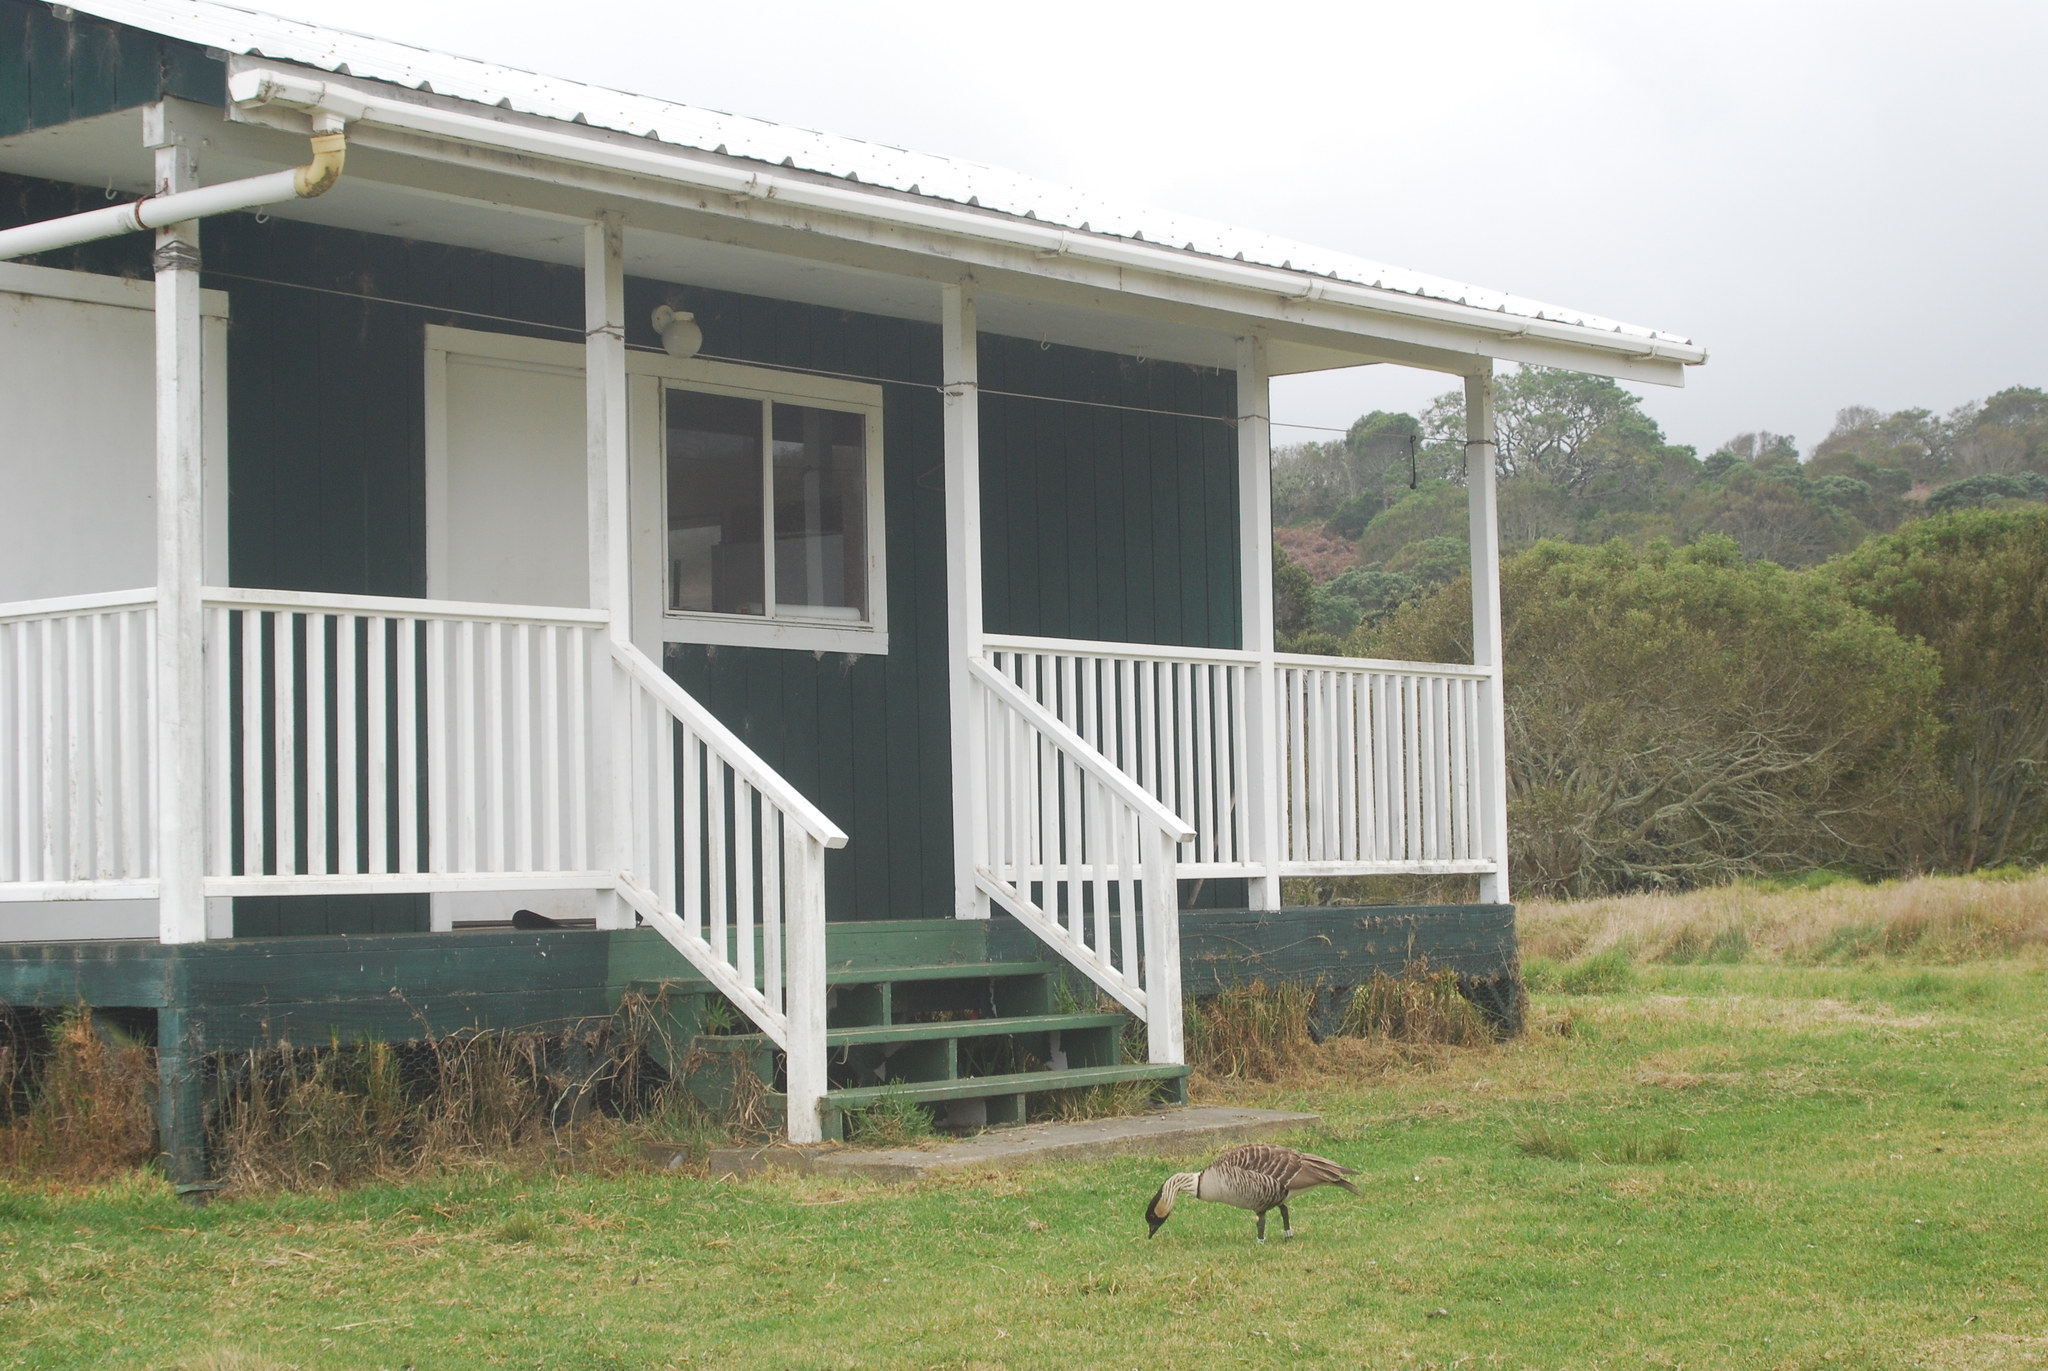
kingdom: Animalia
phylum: Chordata
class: Aves
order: Anseriformes
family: Anatidae
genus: Branta
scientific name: Branta sandvicensis
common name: Nene
